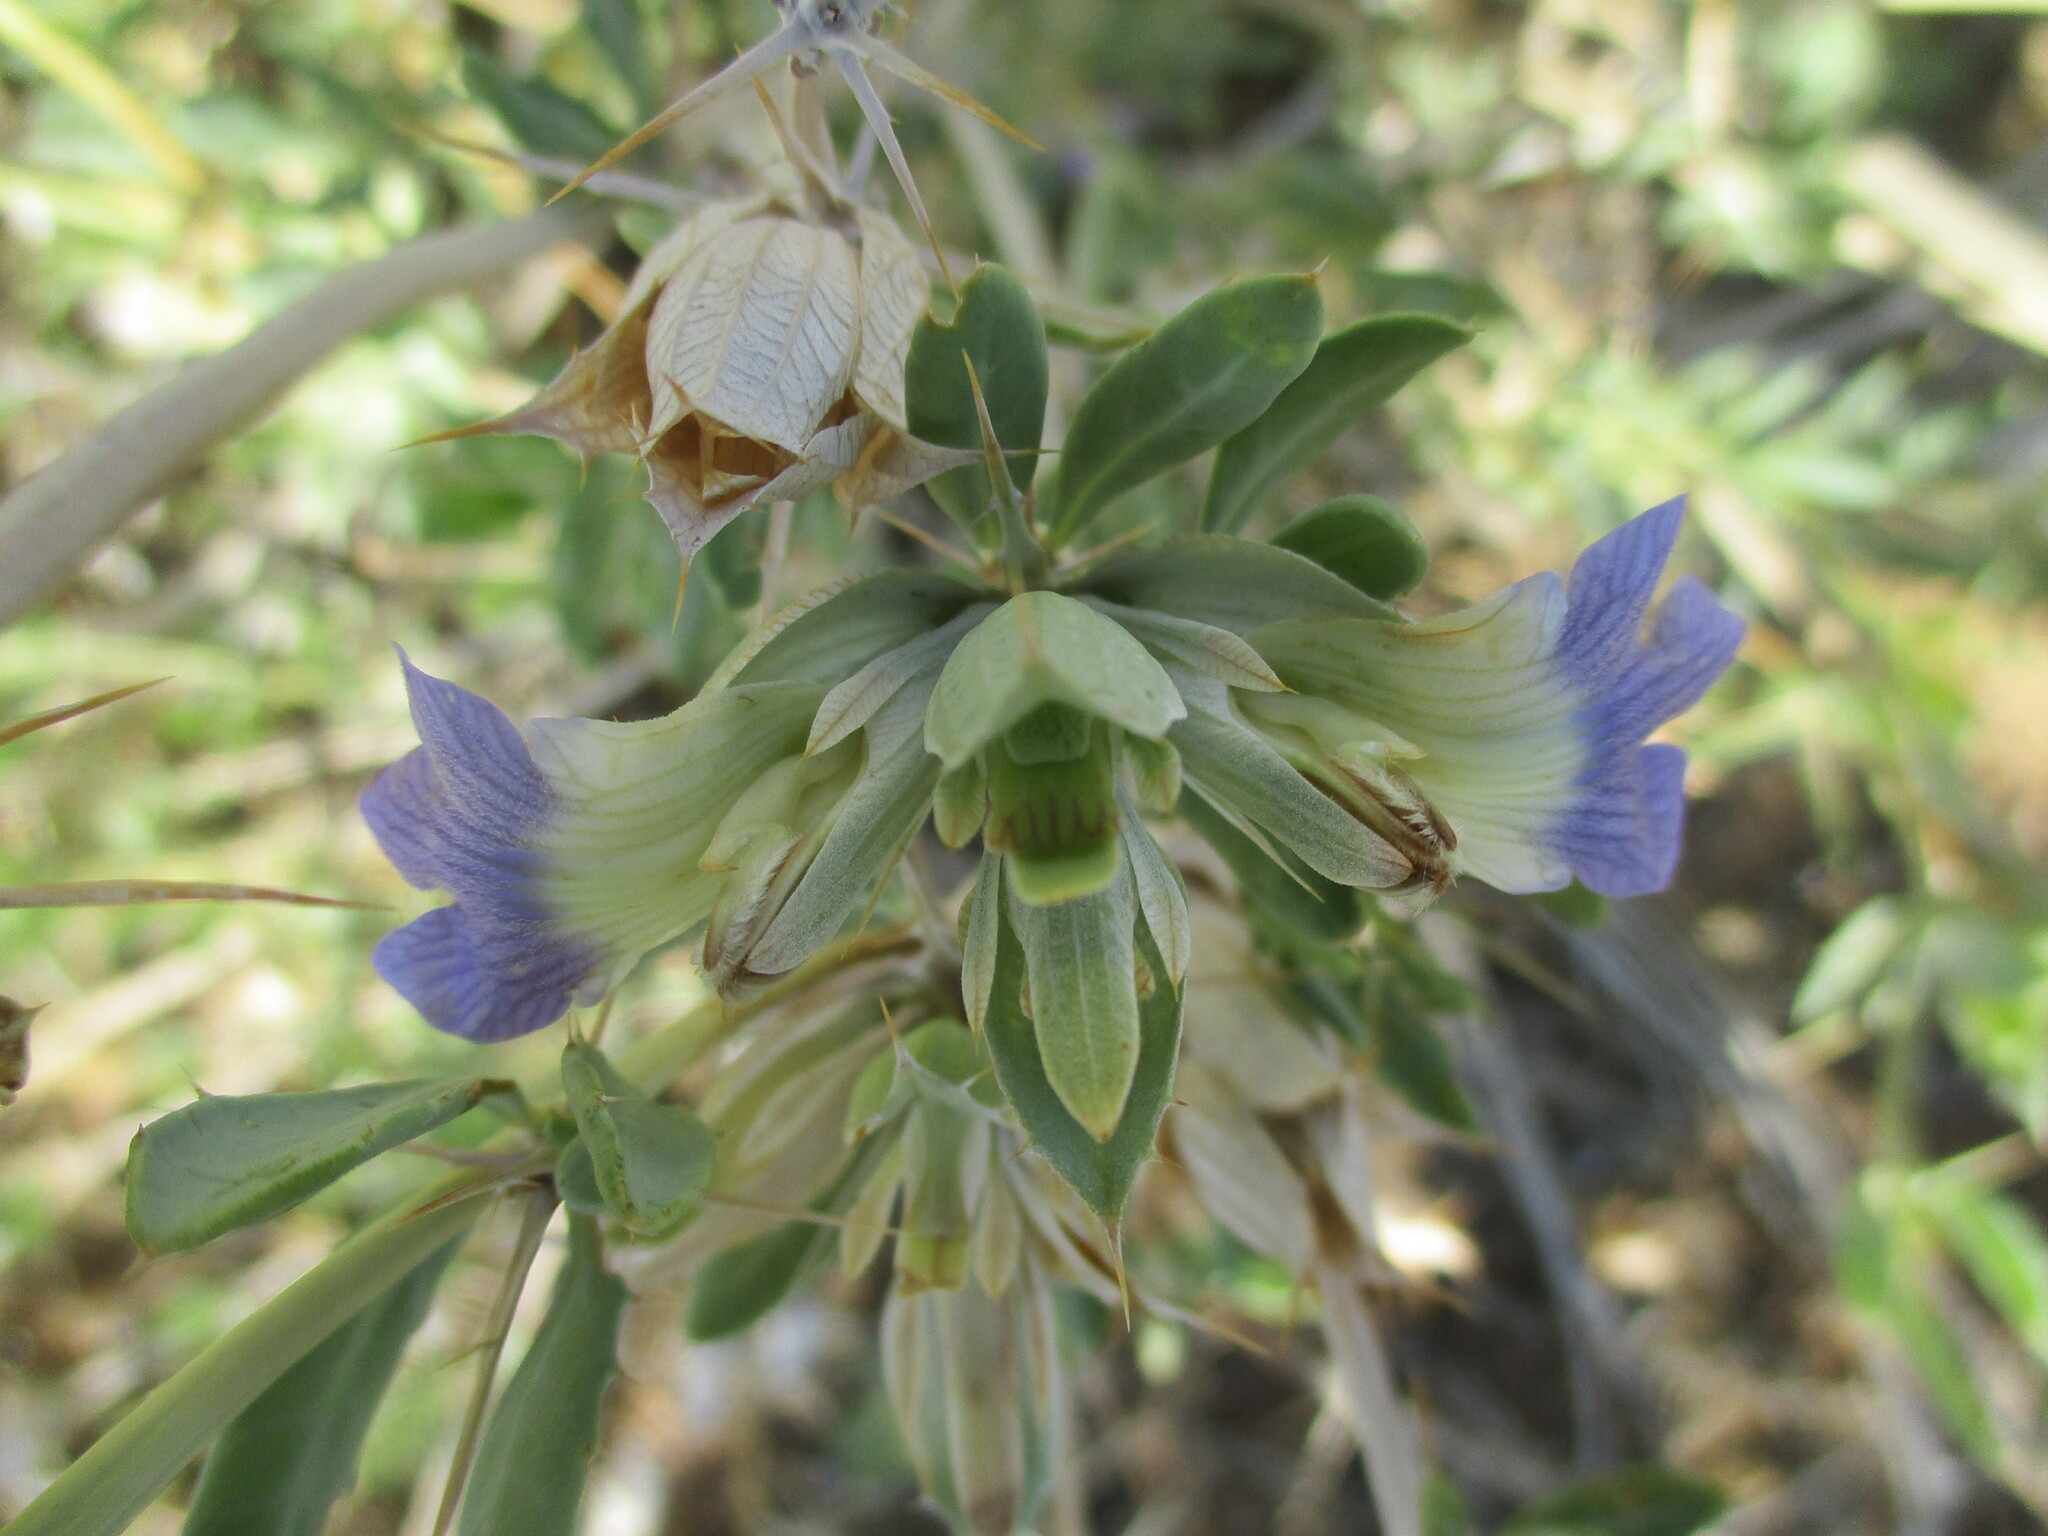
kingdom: Plantae
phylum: Tracheophyta
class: Magnoliopsida
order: Lamiales
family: Acanthaceae
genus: Blepharis
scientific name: Blepharis pruinosa
